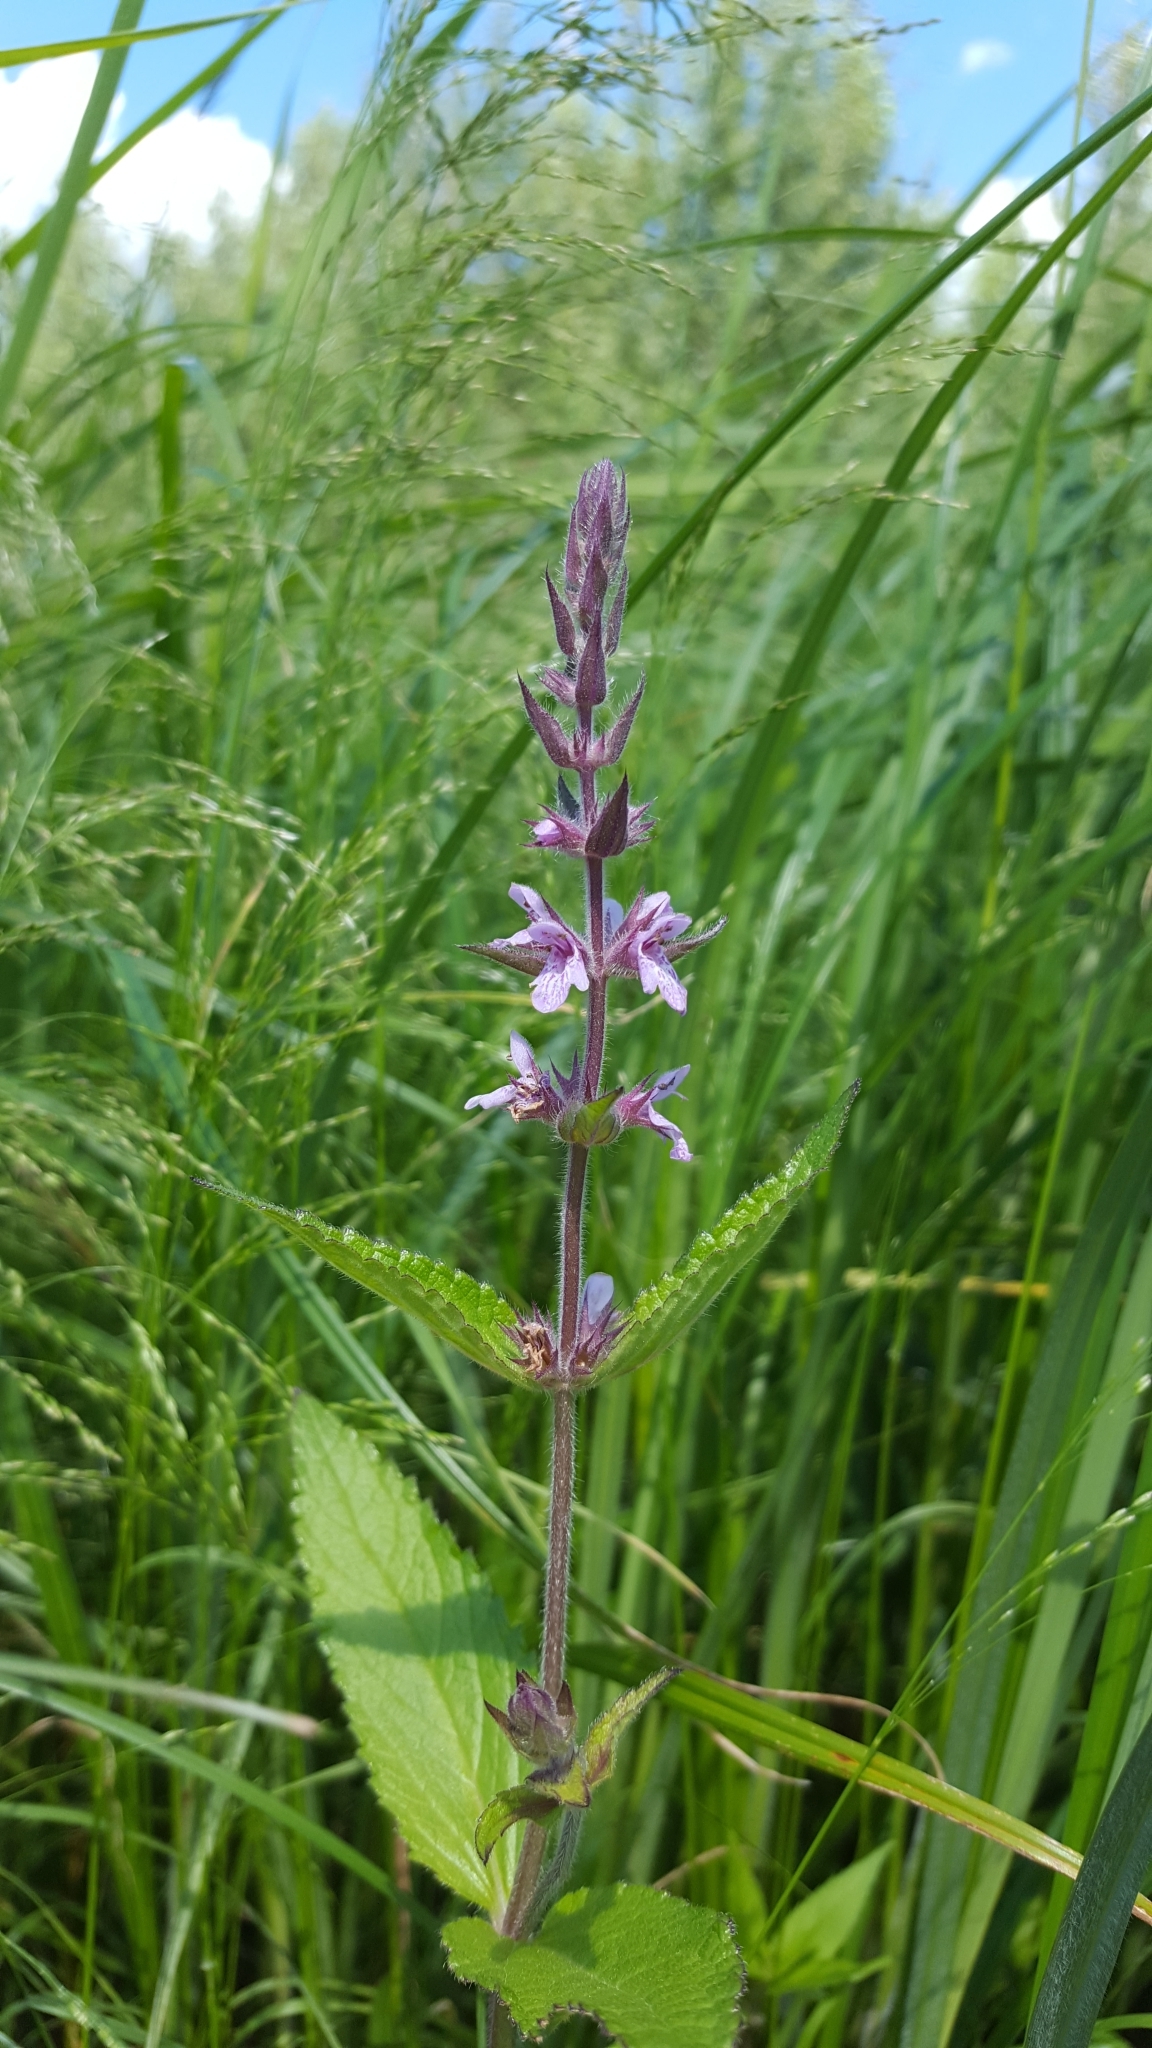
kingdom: Plantae
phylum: Tracheophyta
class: Magnoliopsida
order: Lamiales
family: Lamiaceae
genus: Stachys
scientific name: Stachys pilosa
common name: Hairy hedge-nettle
